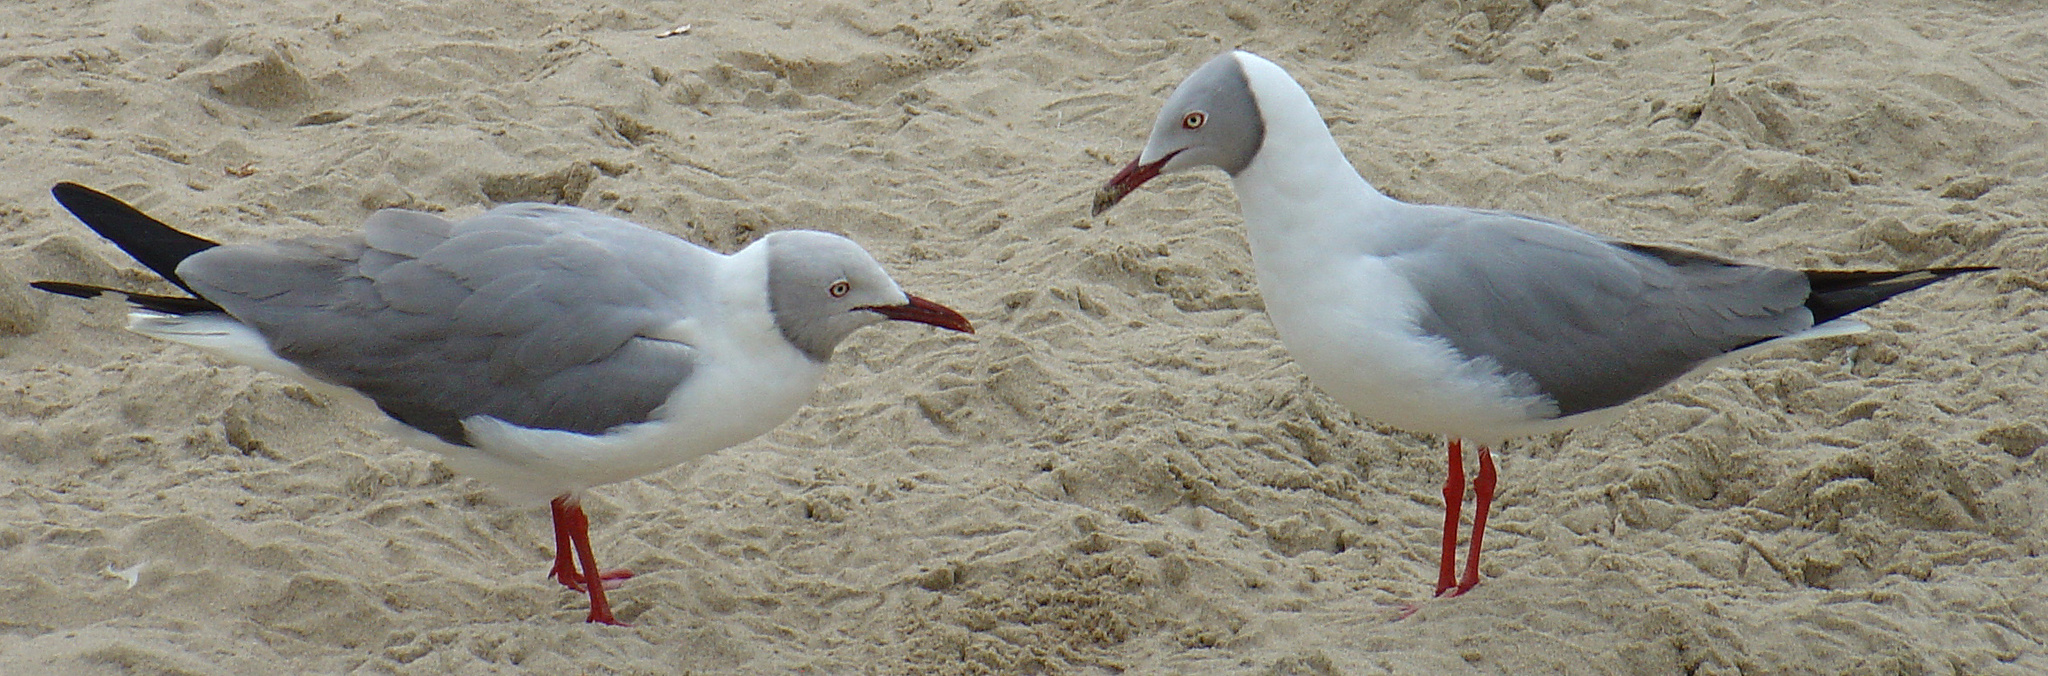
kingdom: Animalia
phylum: Chordata
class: Aves
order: Charadriiformes
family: Laridae
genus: Chroicocephalus
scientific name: Chroicocephalus cirrocephalus
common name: Grey-headed gull
